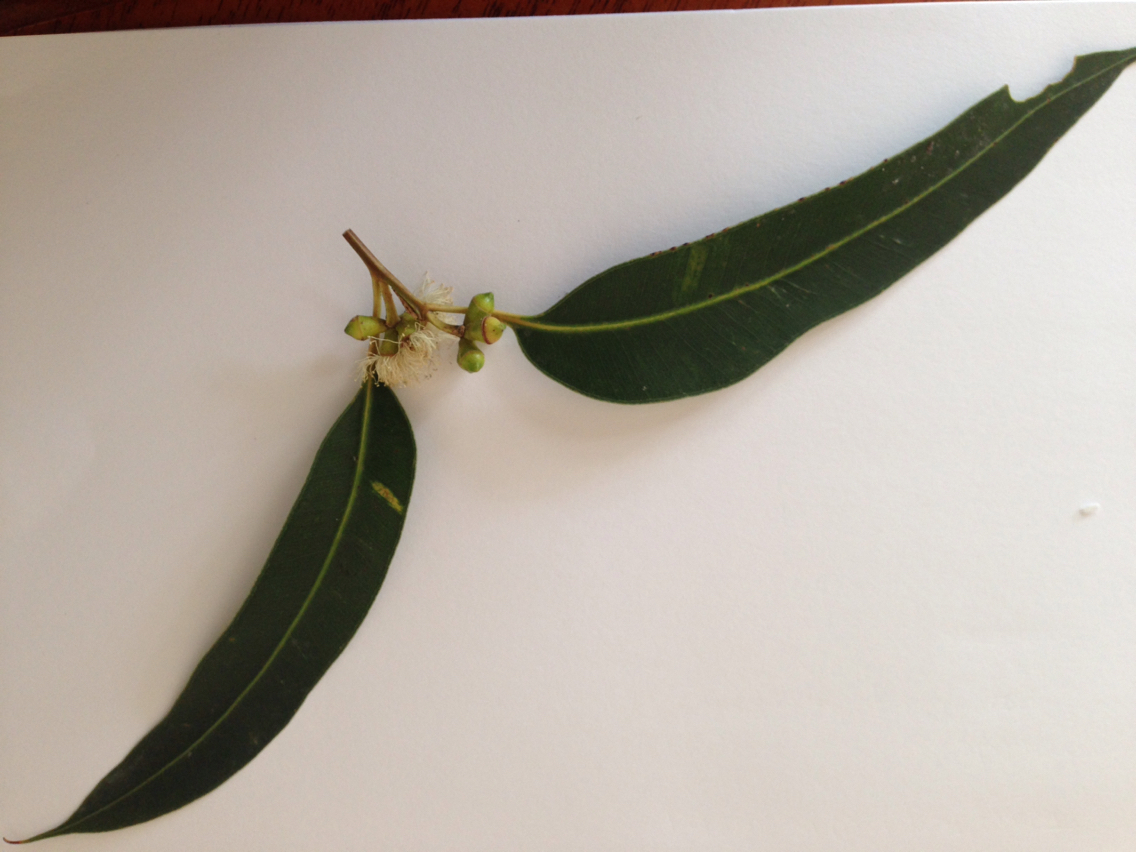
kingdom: Plantae
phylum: Tracheophyta
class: Magnoliopsida
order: Myrtales
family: Myrtaceae
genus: Eucalyptus
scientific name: Eucalyptus botryoides
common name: Bangalay
